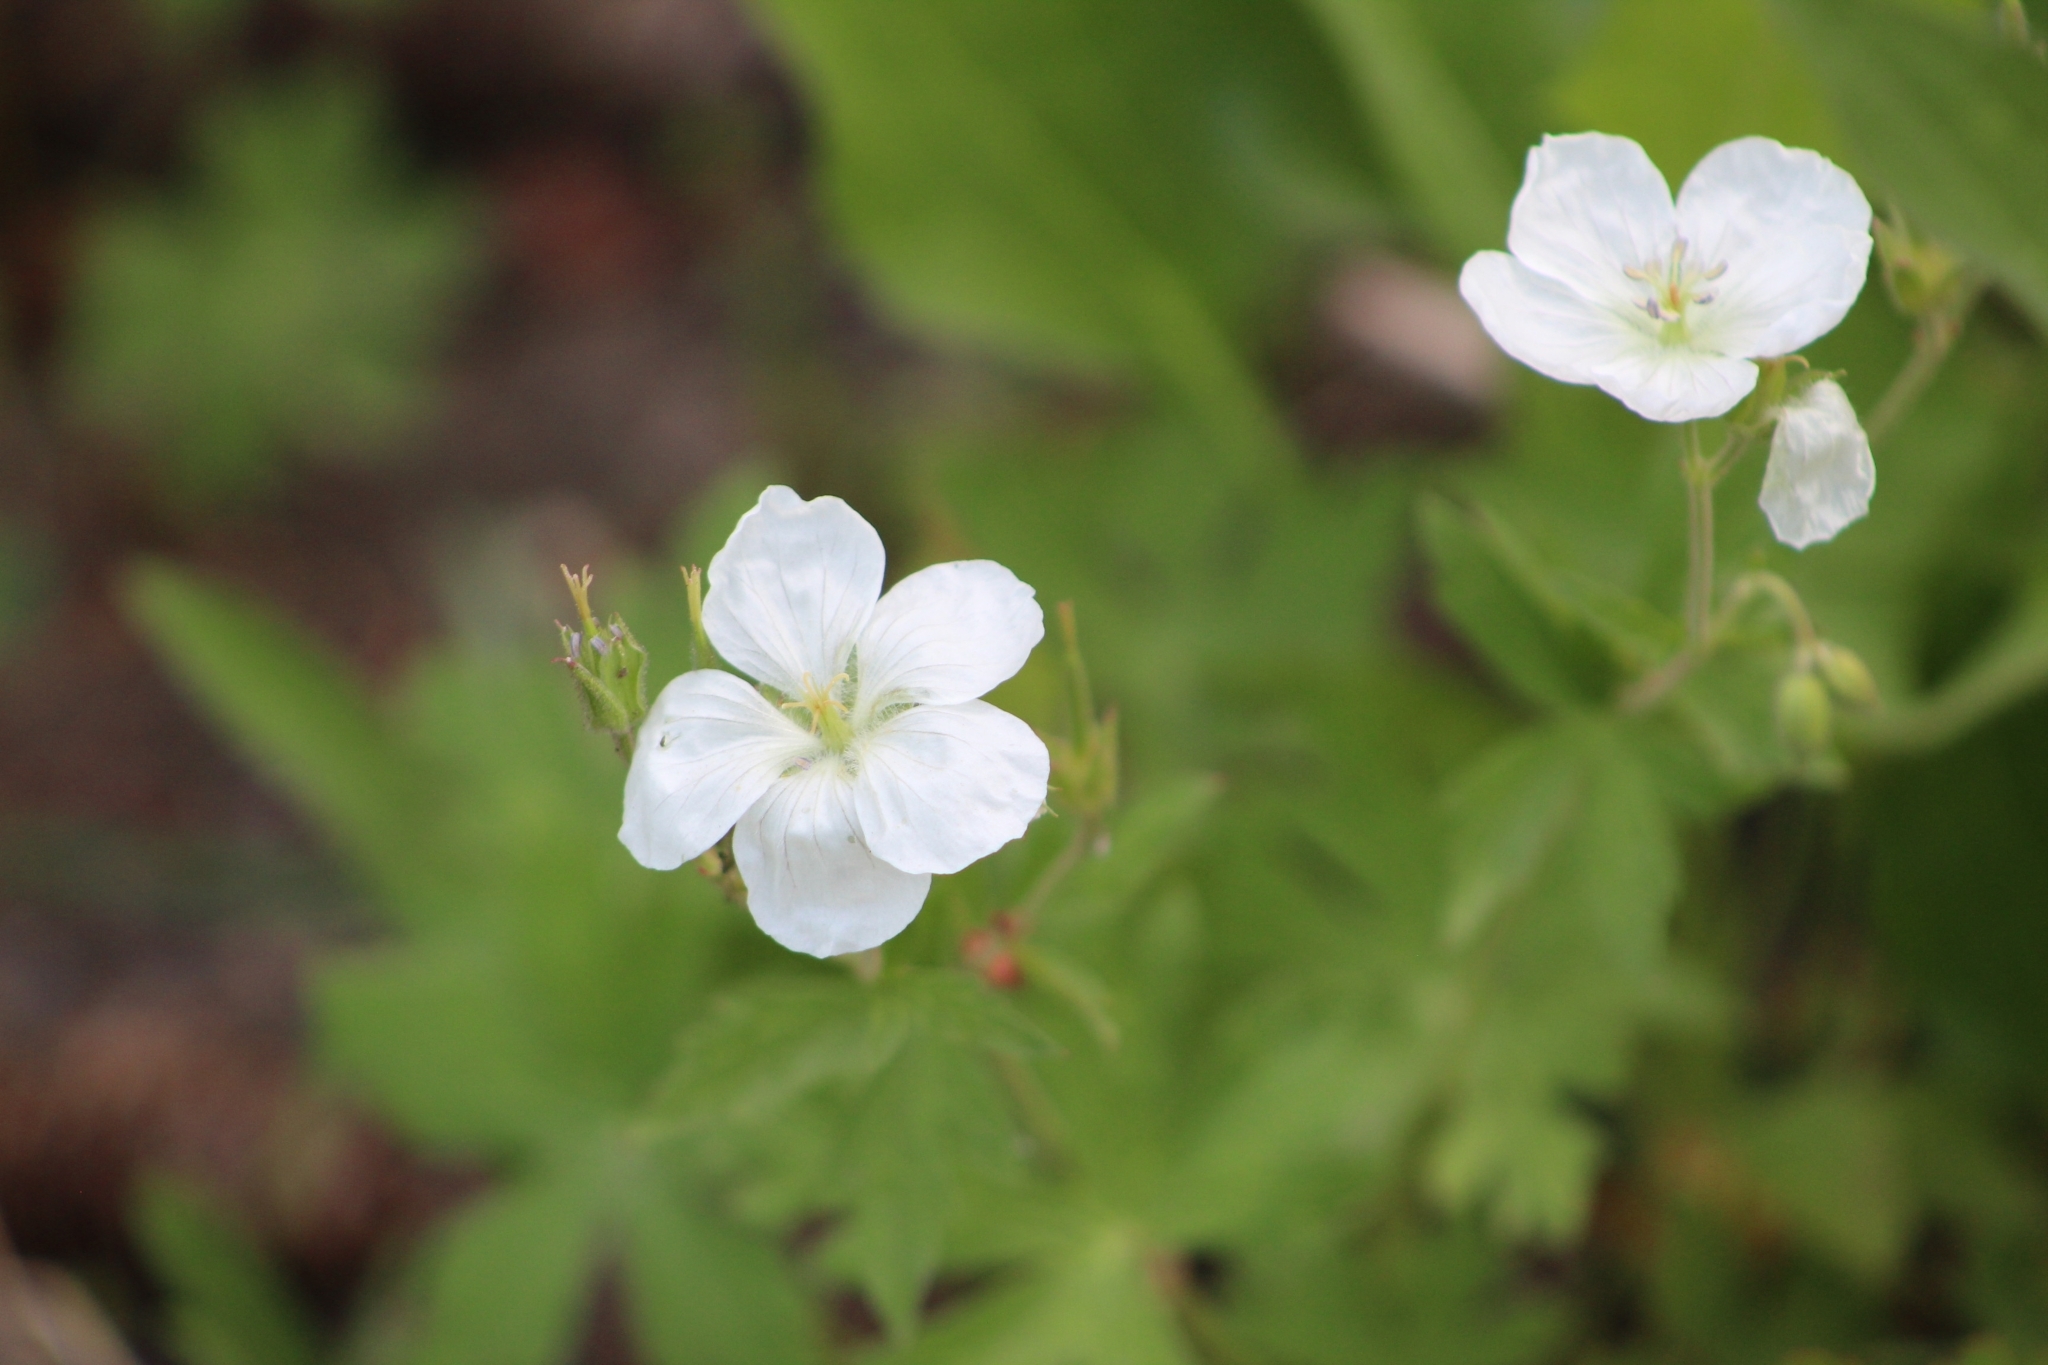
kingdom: Plantae
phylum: Tracheophyta
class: Magnoliopsida
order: Geraniales
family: Geraniaceae
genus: Geranium
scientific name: Geranium richardsonii
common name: Richardson's crane's-bill
